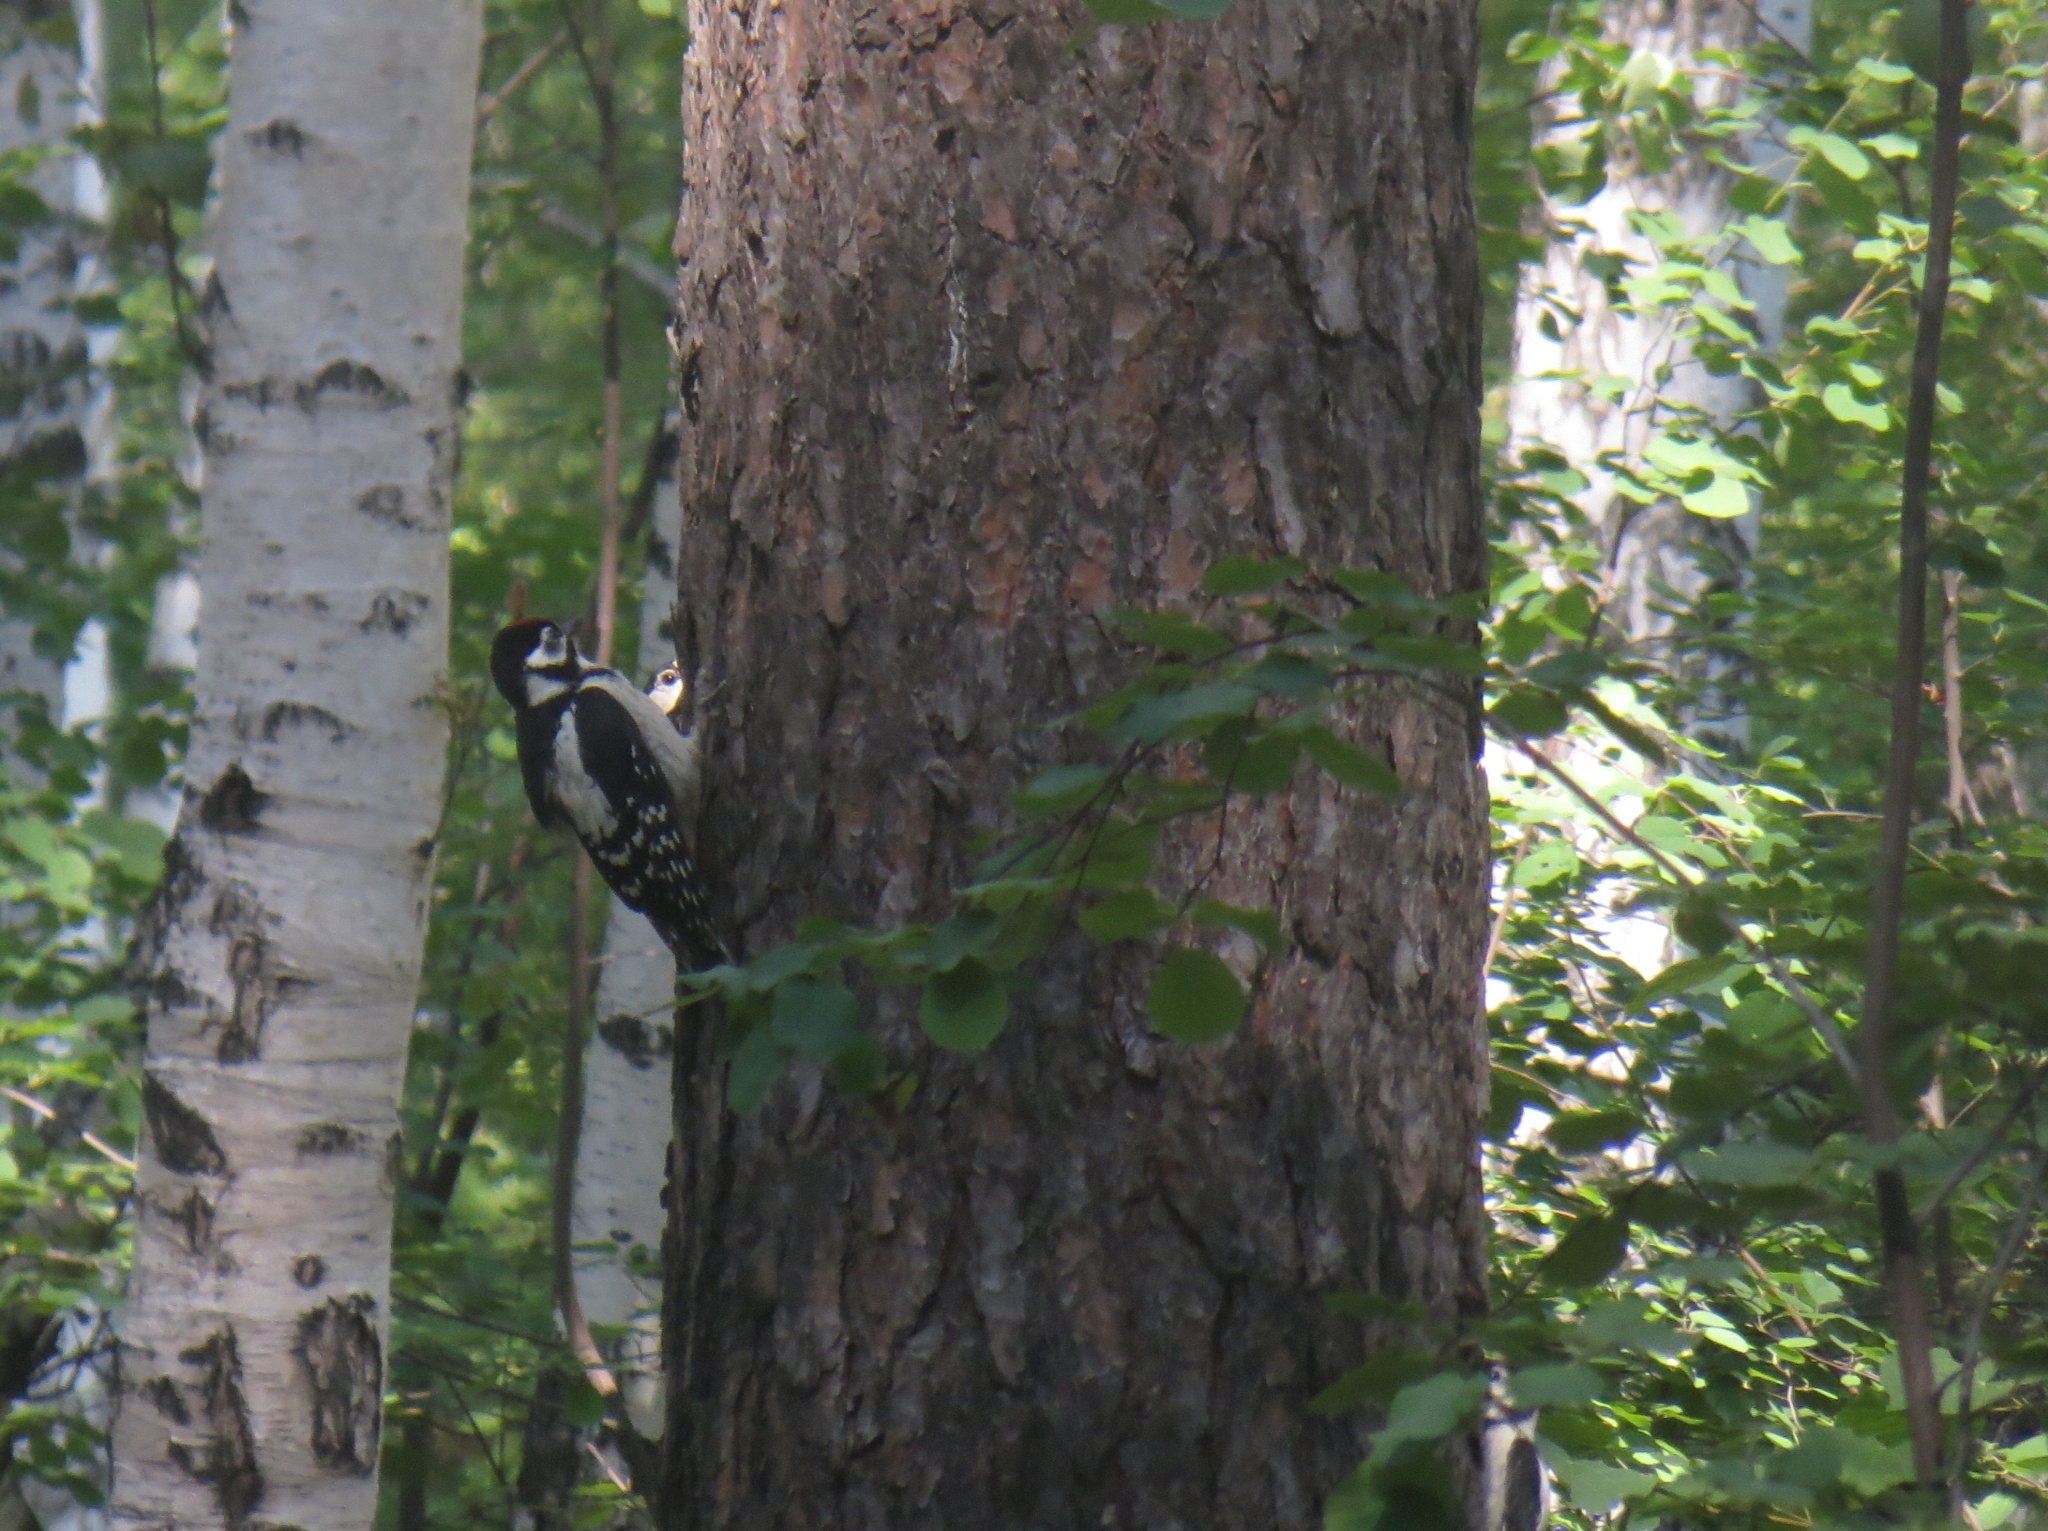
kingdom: Animalia
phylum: Chordata
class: Aves
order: Piciformes
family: Picidae
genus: Dendrocopos
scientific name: Dendrocopos major
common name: Great spotted woodpecker
